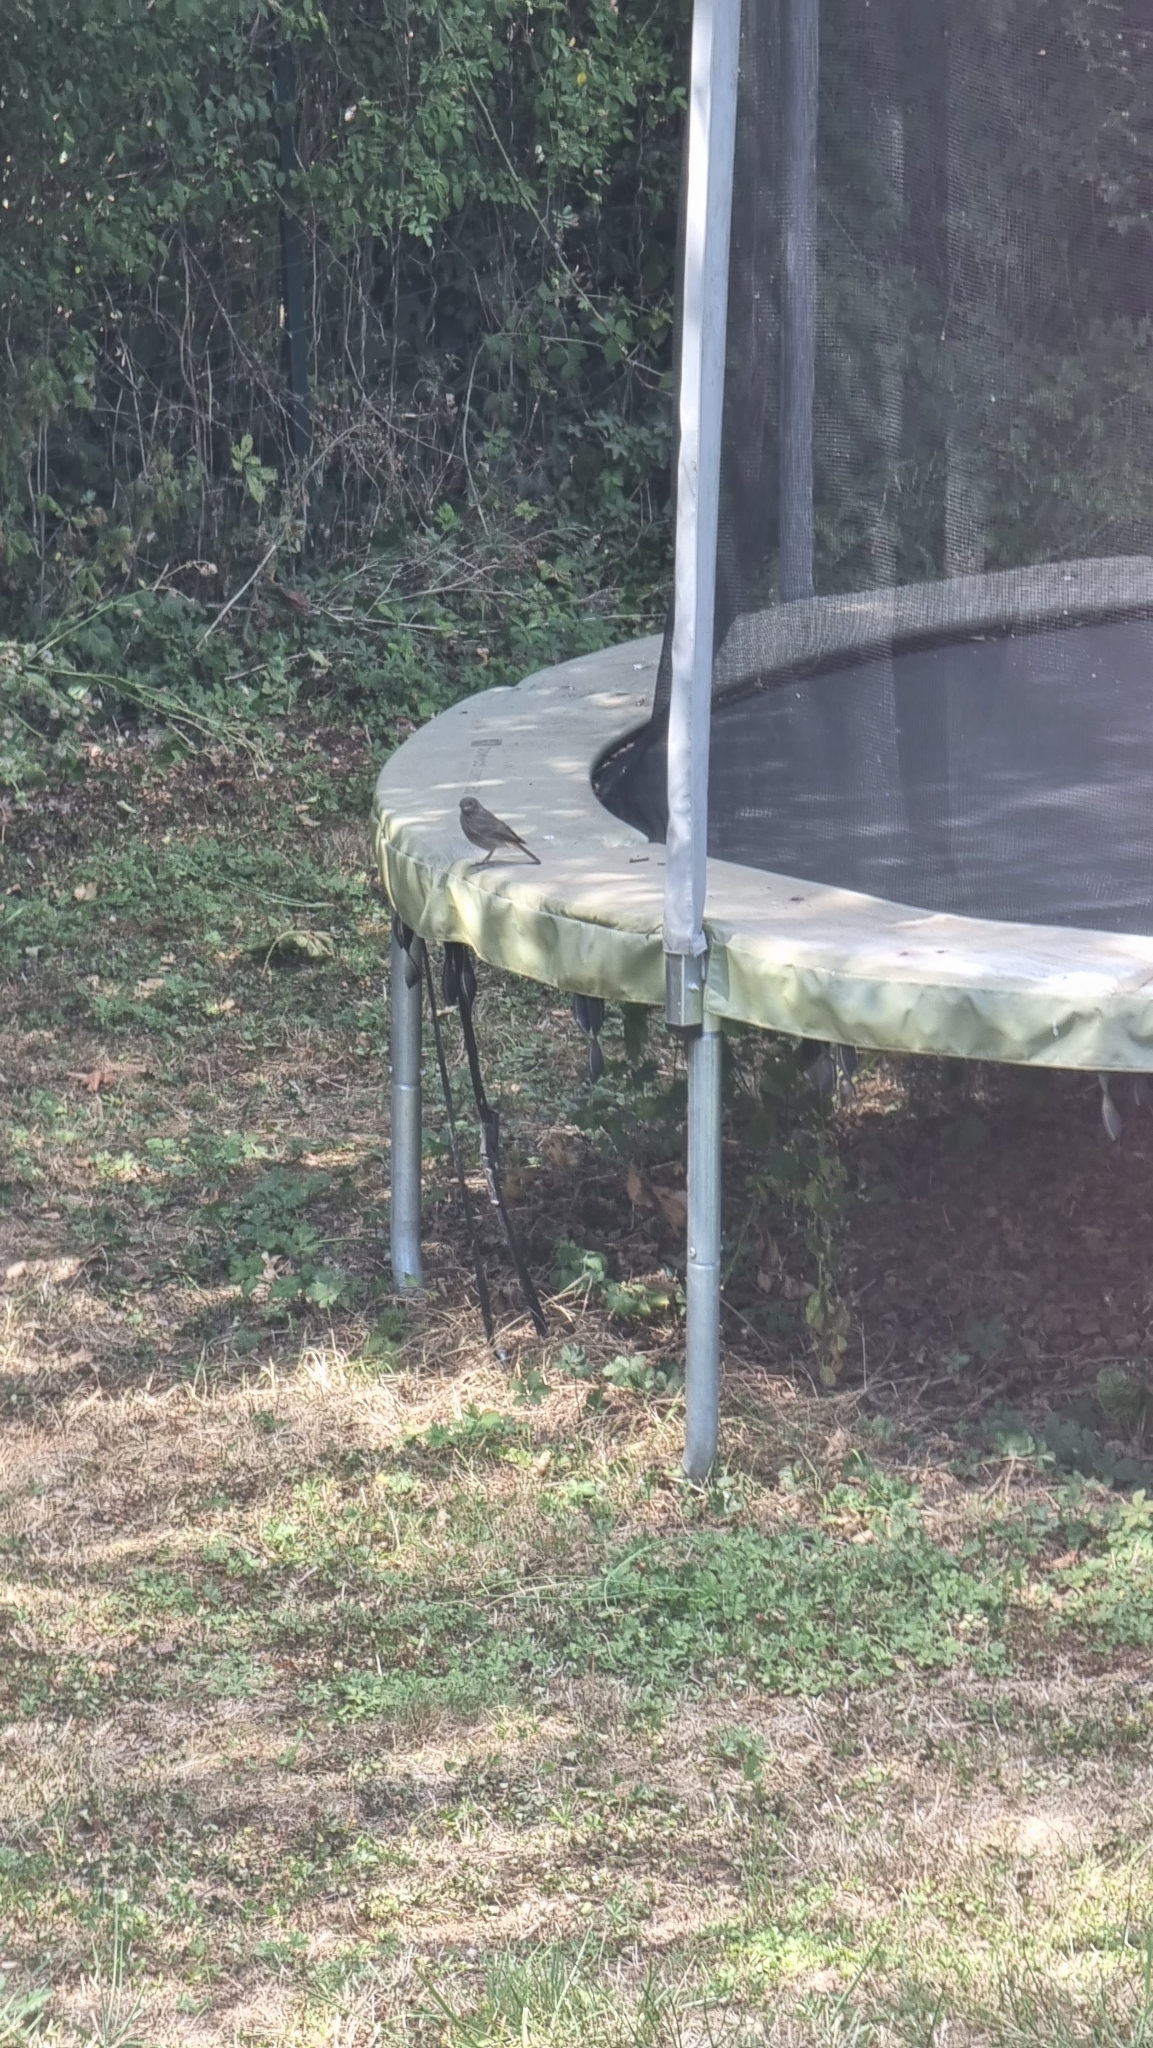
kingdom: Animalia
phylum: Chordata
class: Aves
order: Passeriformes
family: Muscicapidae
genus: Phoenicurus
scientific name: Phoenicurus ochruros
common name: Black redstart
